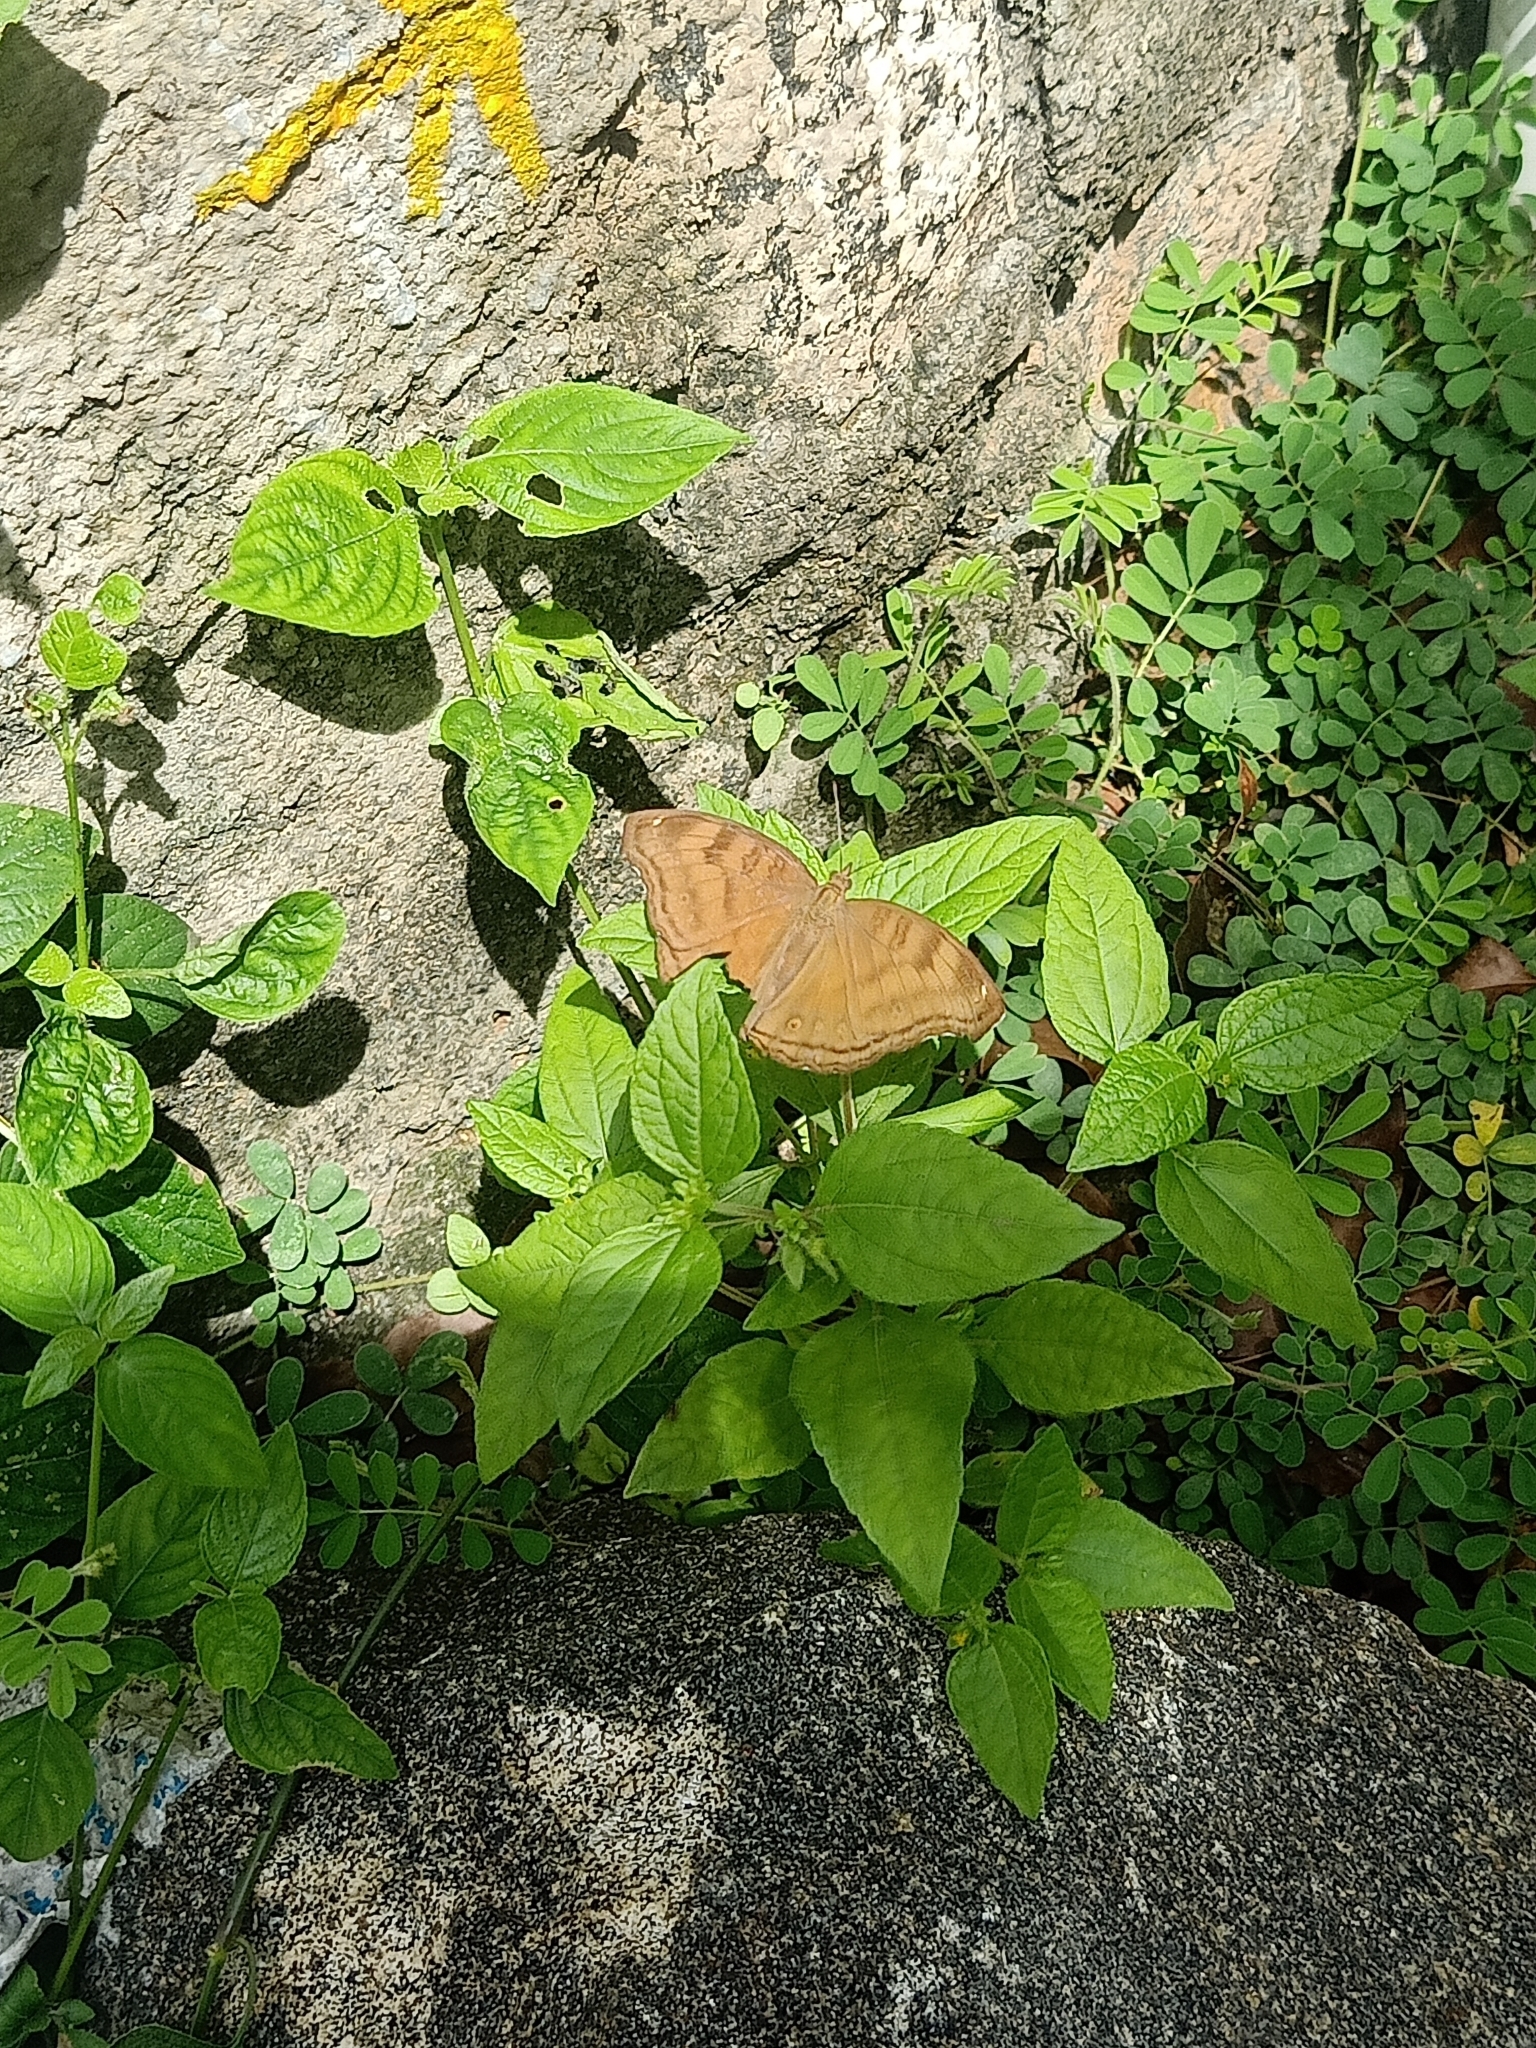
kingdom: Animalia
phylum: Arthropoda
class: Insecta
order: Lepidoptera
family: Nymphalidae
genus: Junonia
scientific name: Junonia iphita
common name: Chocolate pansy
